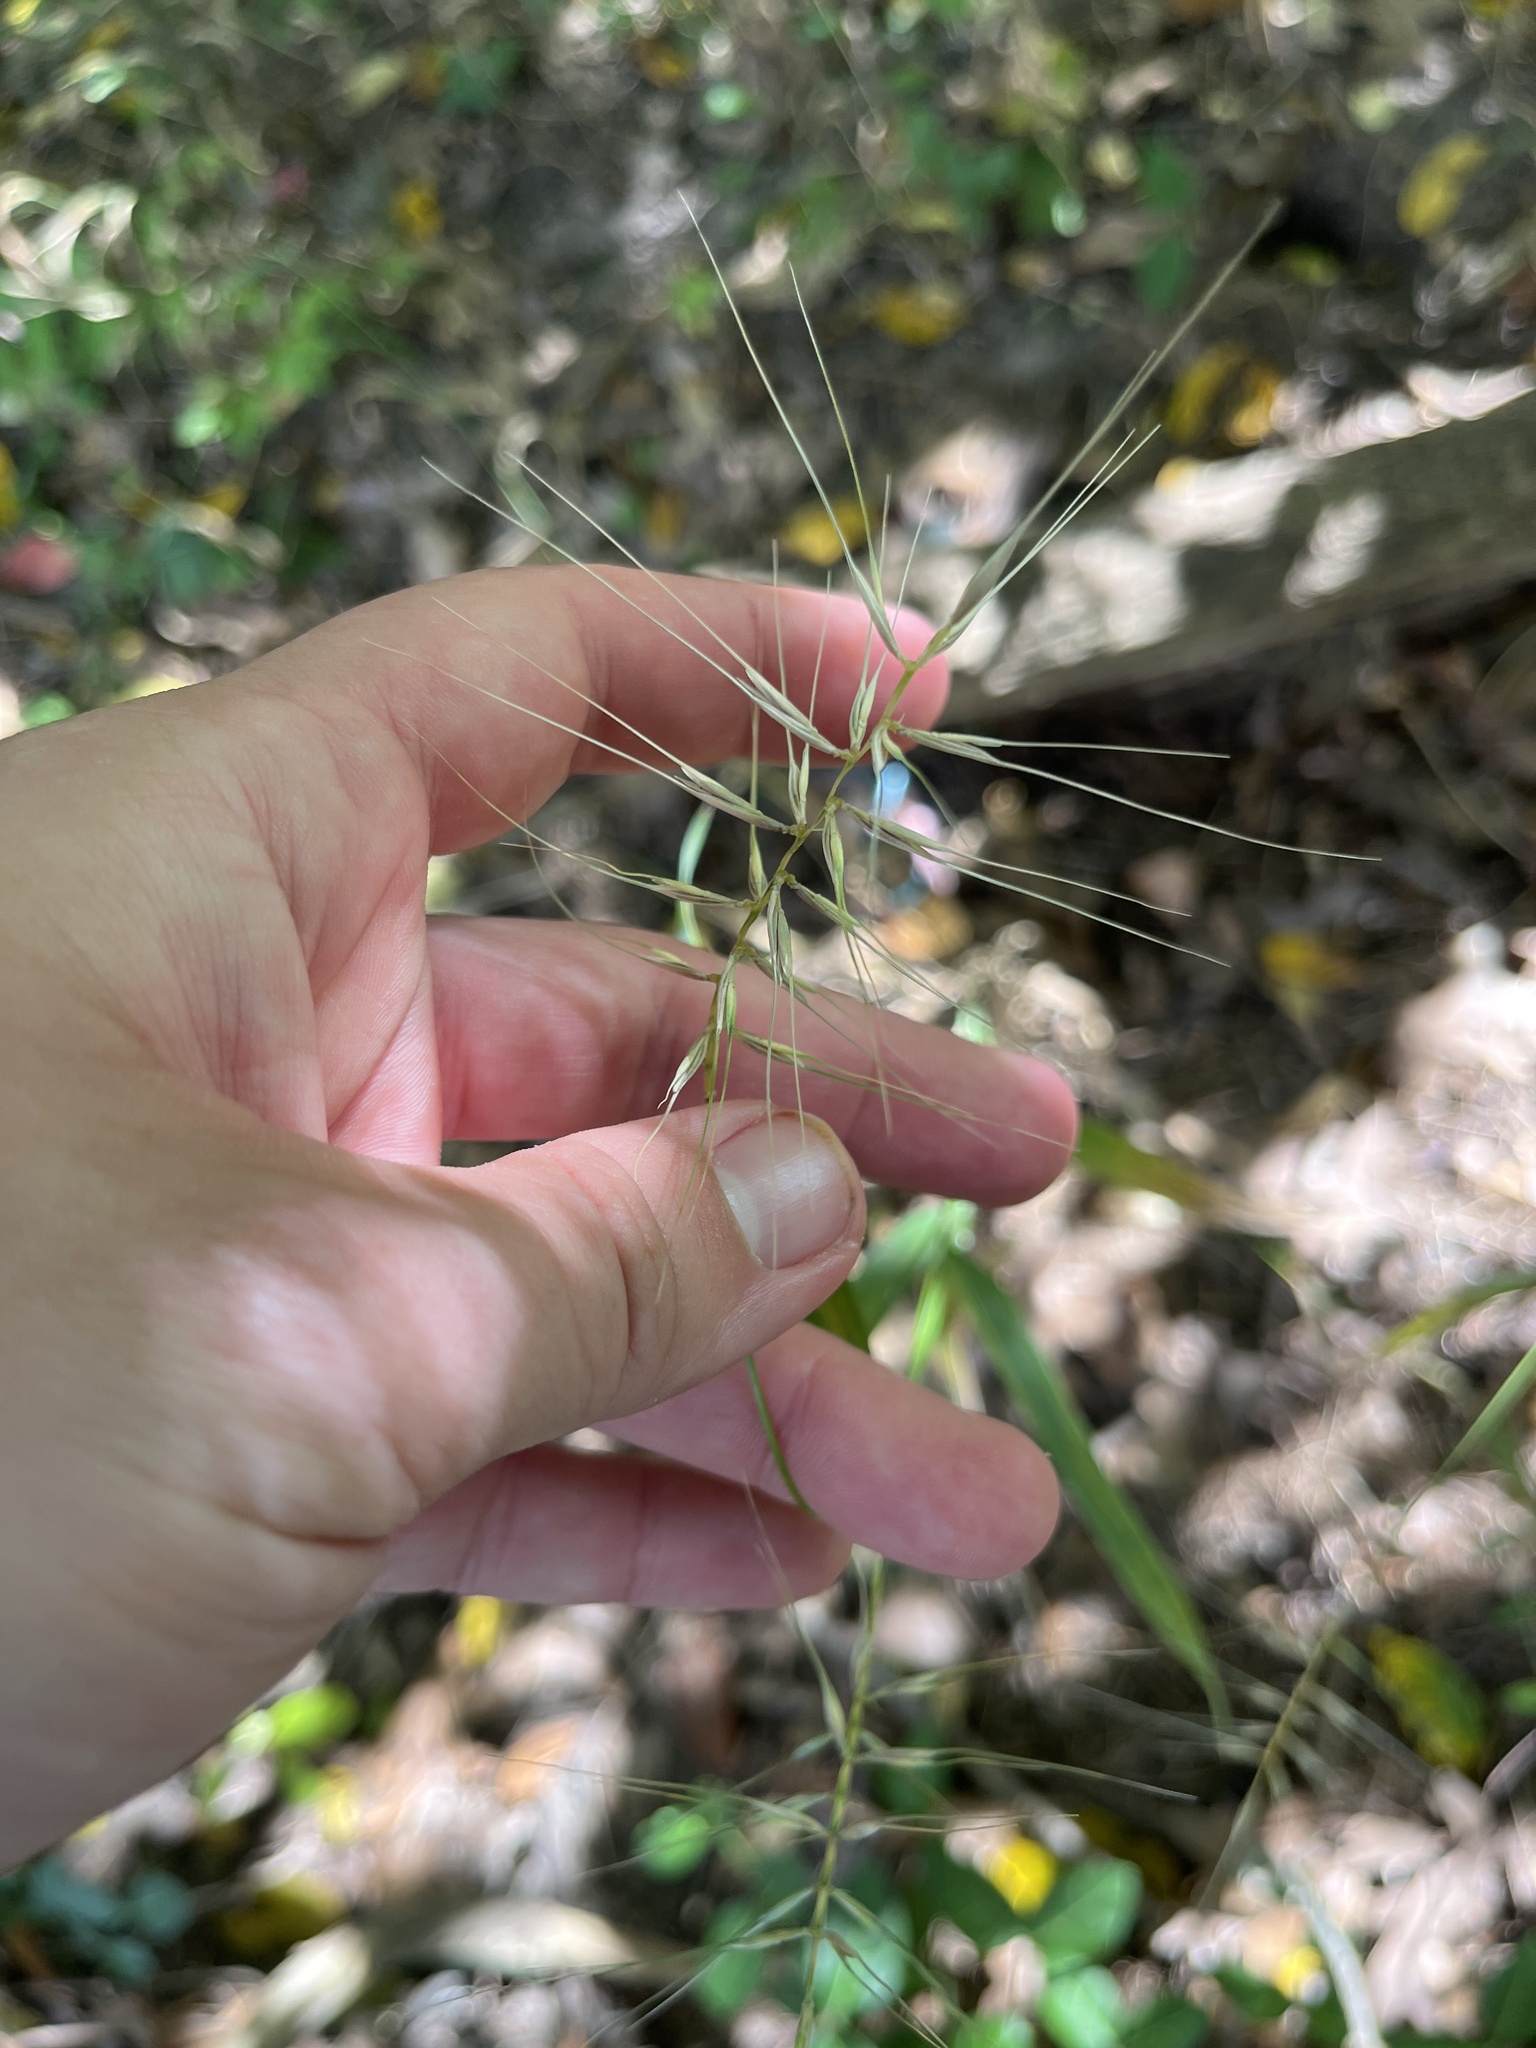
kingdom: Plantae
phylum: Tracheophyta
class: Liliopsida
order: Poales
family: Poaceae
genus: Elymus
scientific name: Elymus hystrix
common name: Bottlebrush grass
